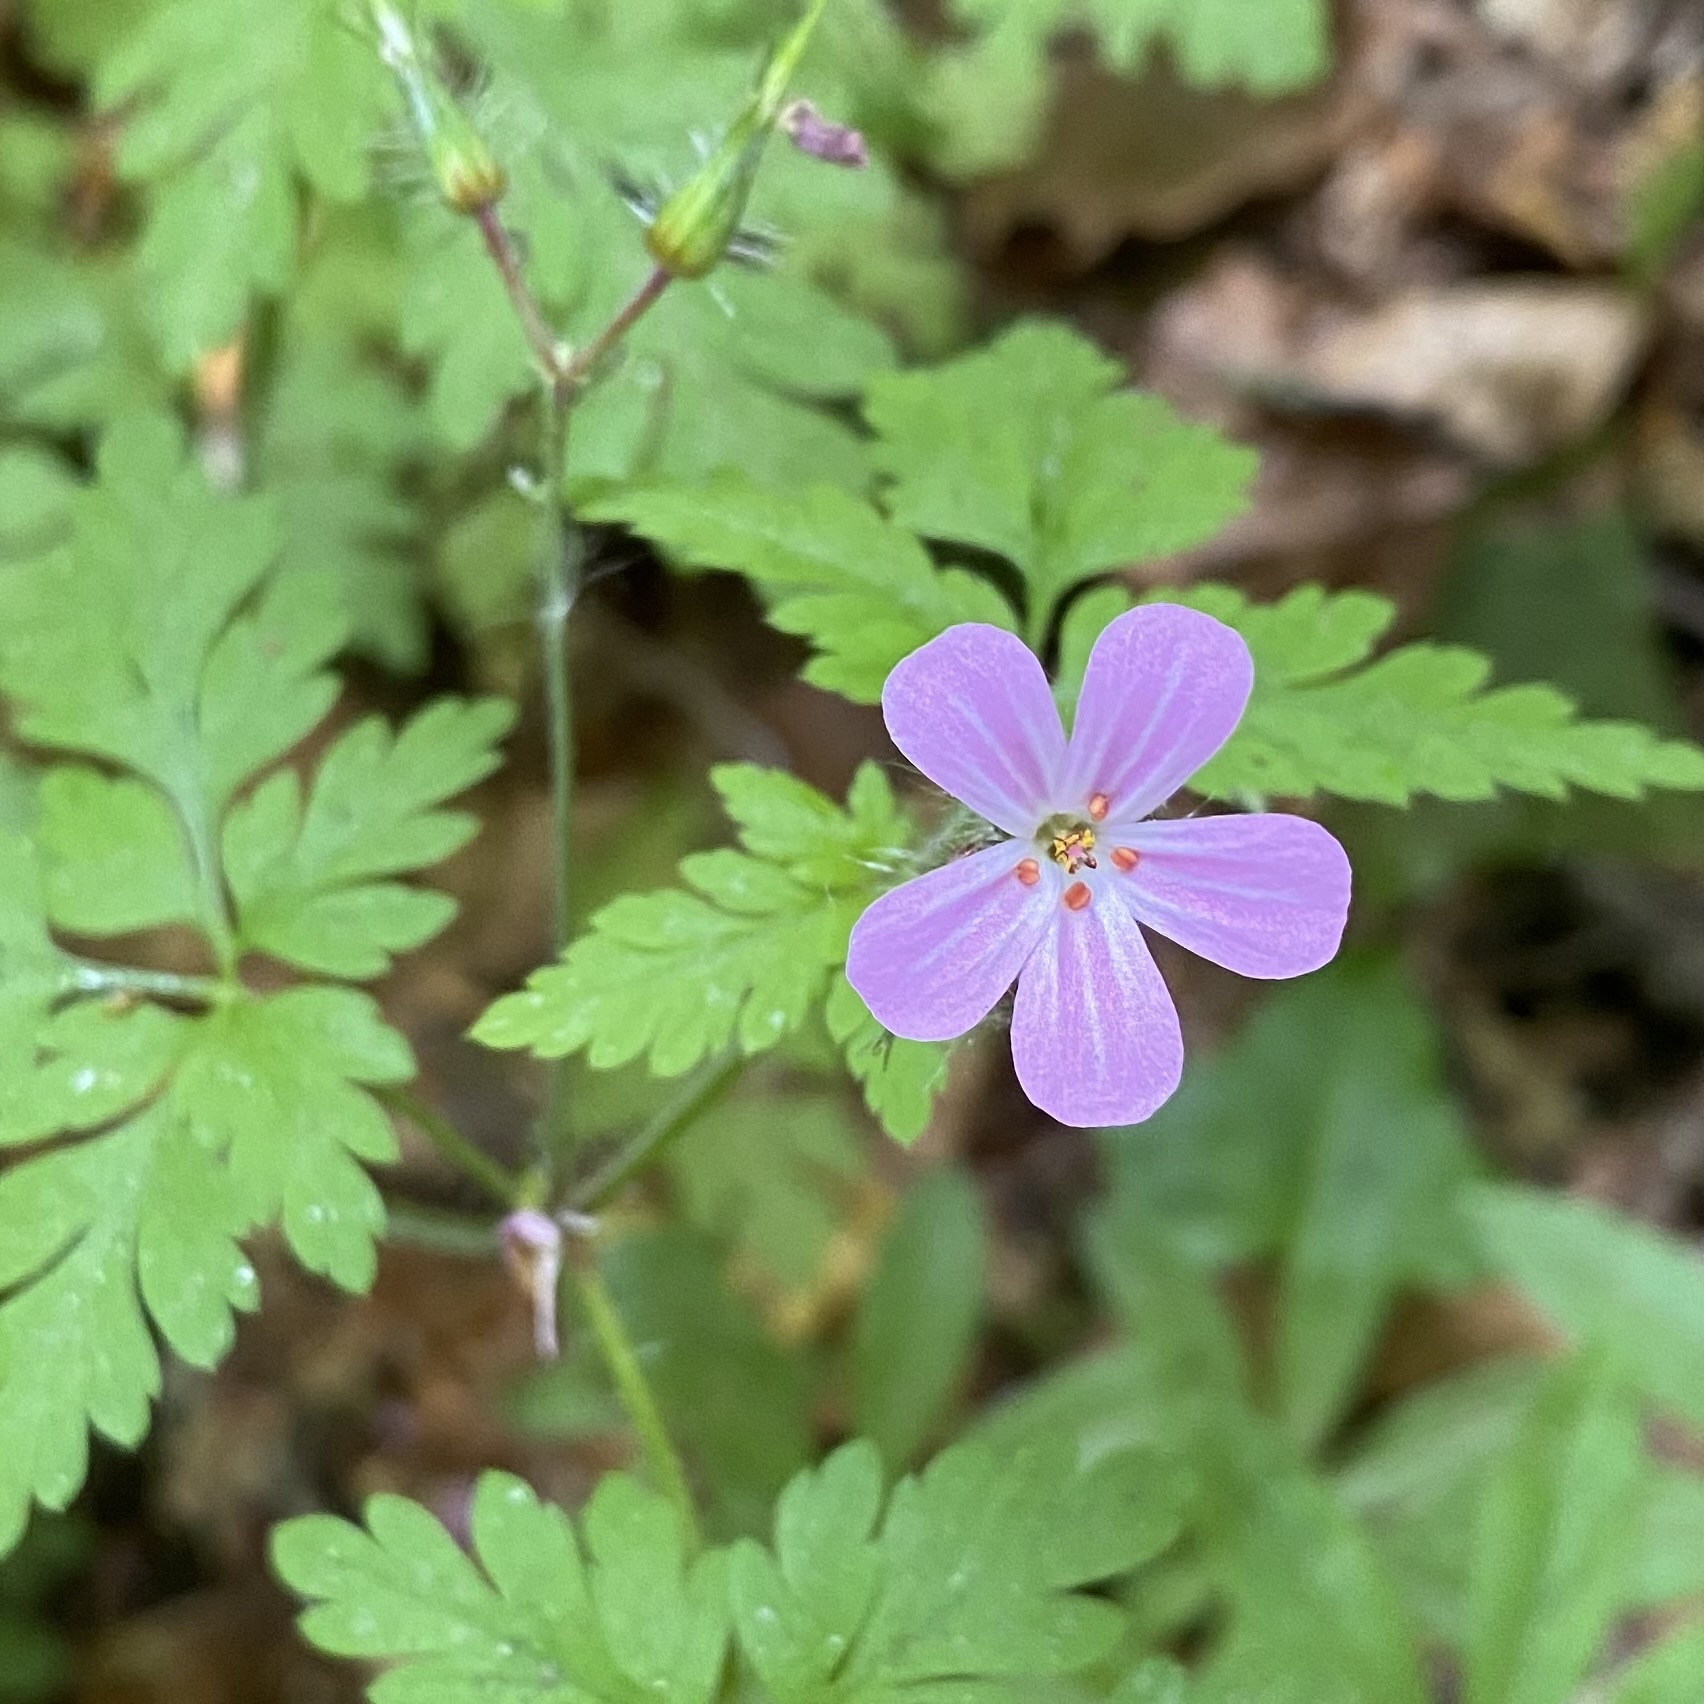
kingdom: Plantae
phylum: Tracheophyta
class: Magnoliopsida
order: Geraniales
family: Geraniaceae
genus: Geranium
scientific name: Geranium robertianum
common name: Herb-robert
